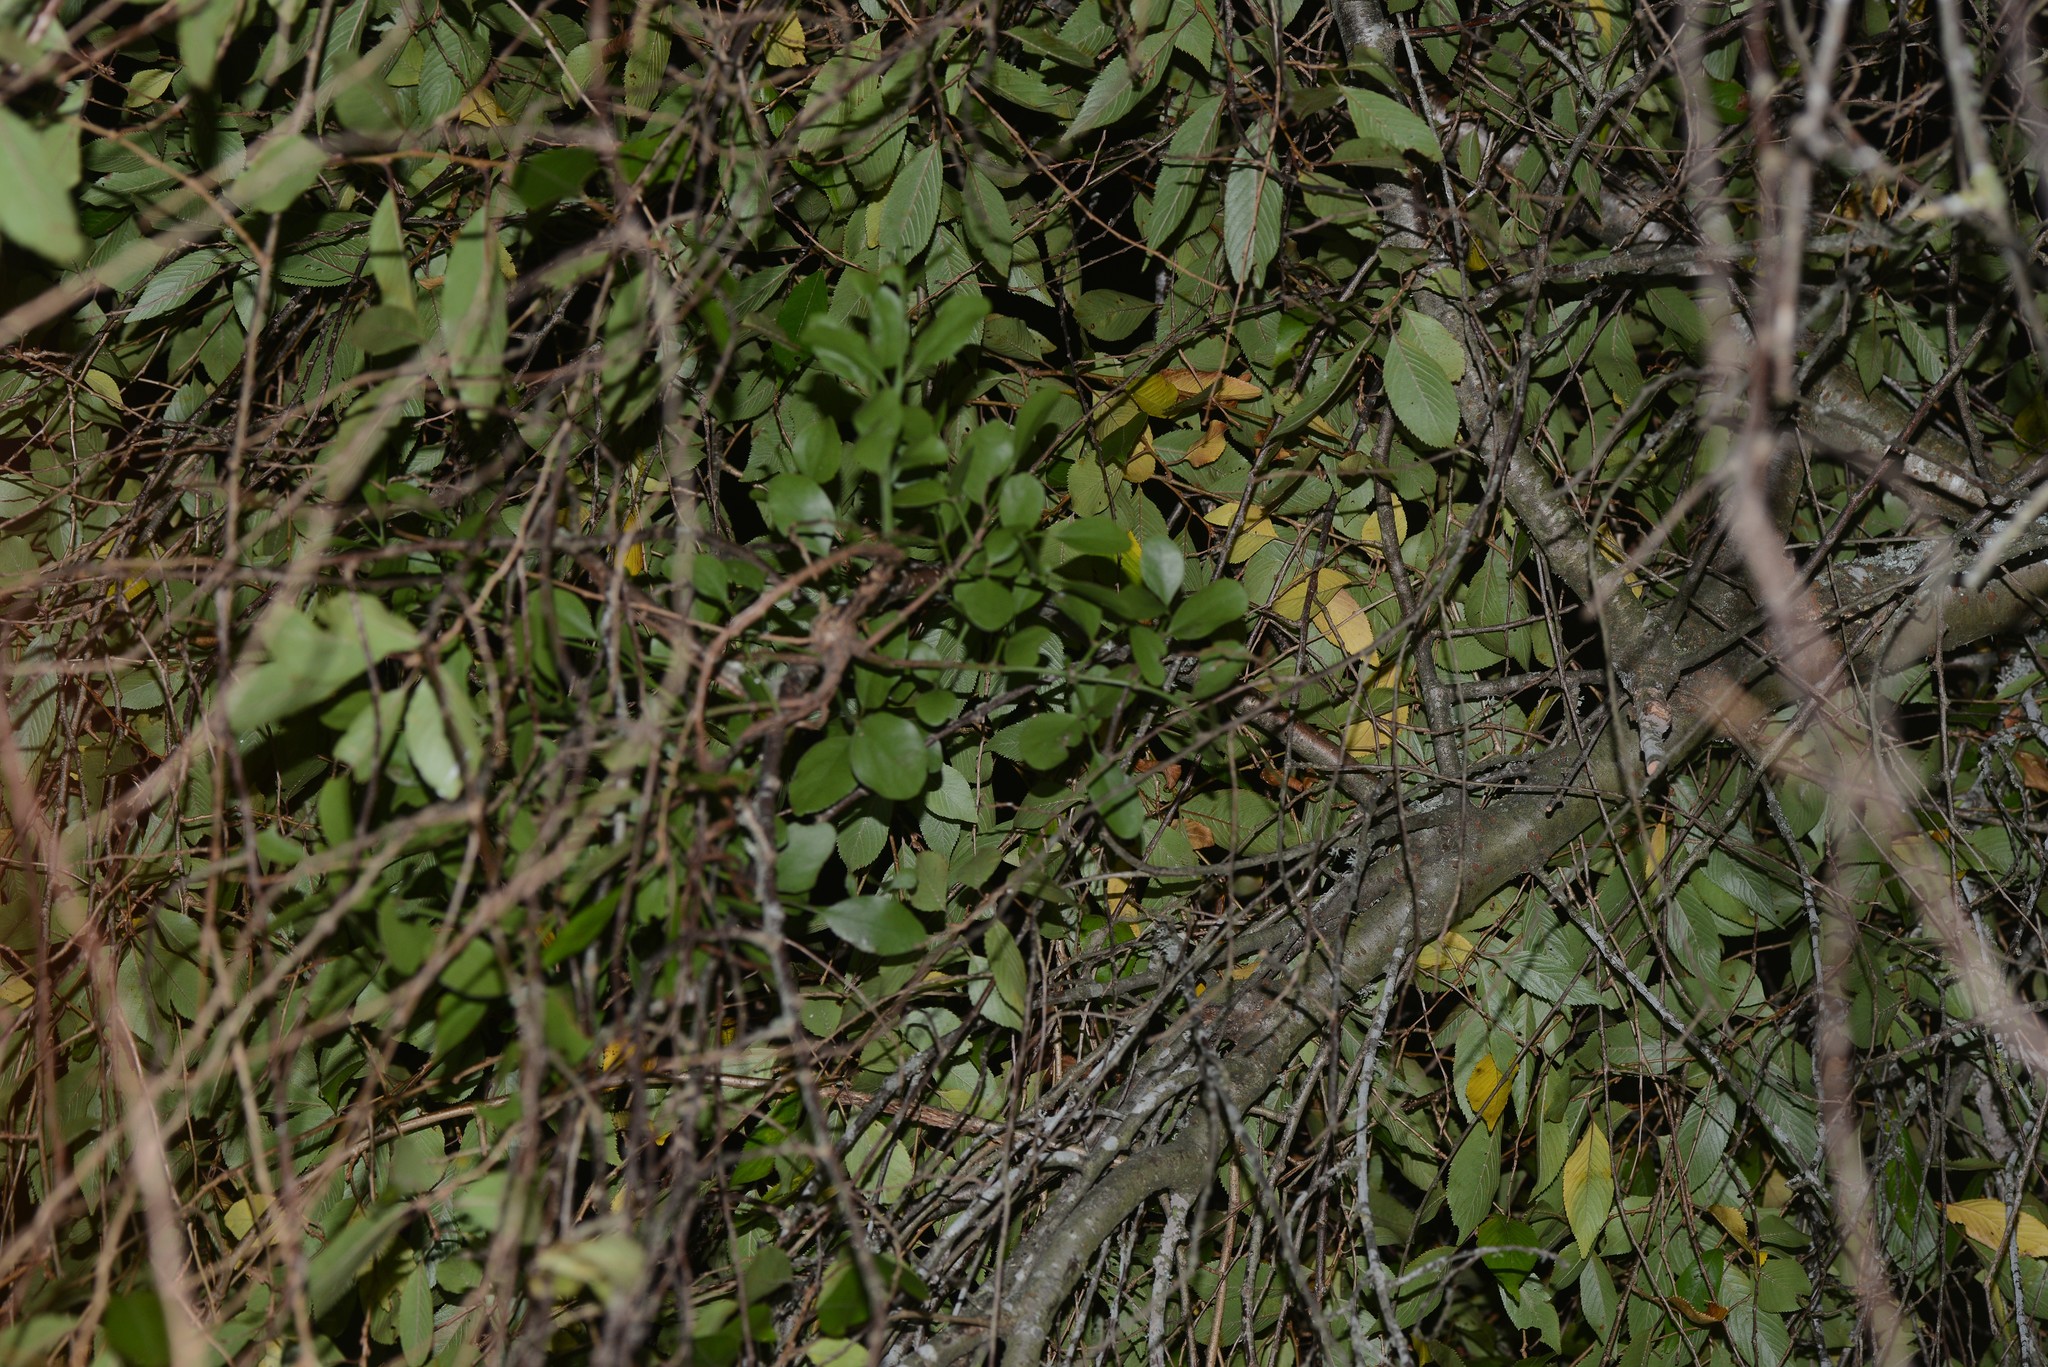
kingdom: Plantae
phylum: Tracheophyta
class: Magnoliopsida
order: Santalales
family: Loranthaceae
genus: Ileostylus
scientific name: Ileostylus micranthus
